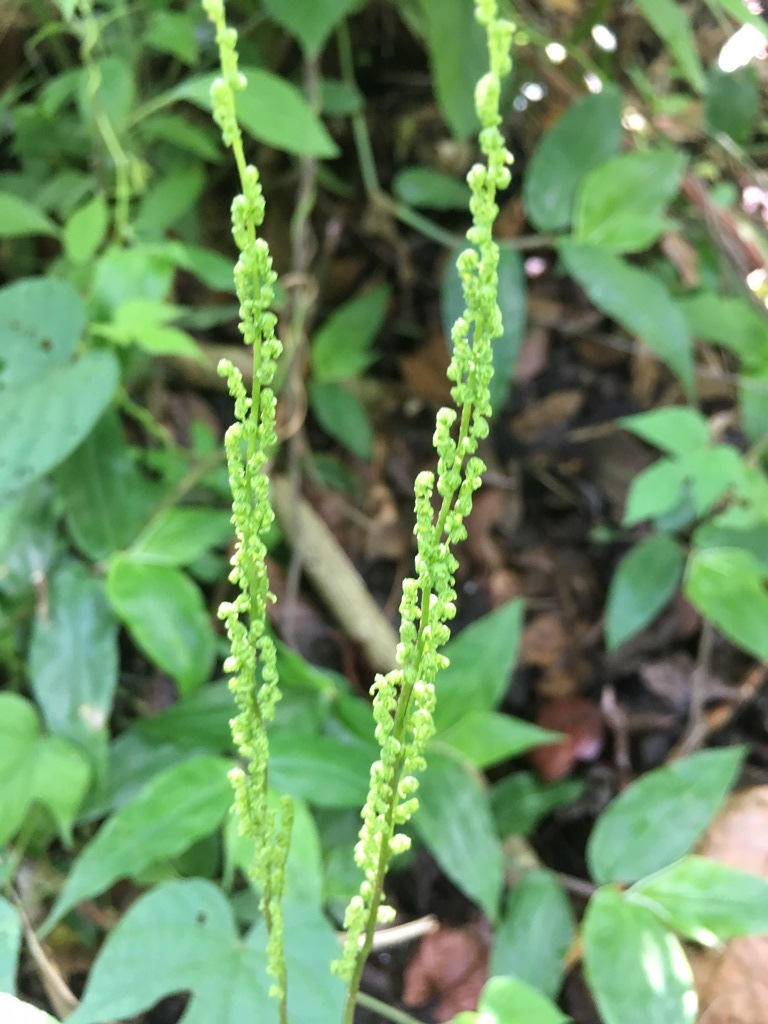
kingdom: Plantae
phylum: Tracheophyta
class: Polypodiopsida
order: Schizaeales
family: Anemiaceae
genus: Anemia
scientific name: Anemia phyllitidis
